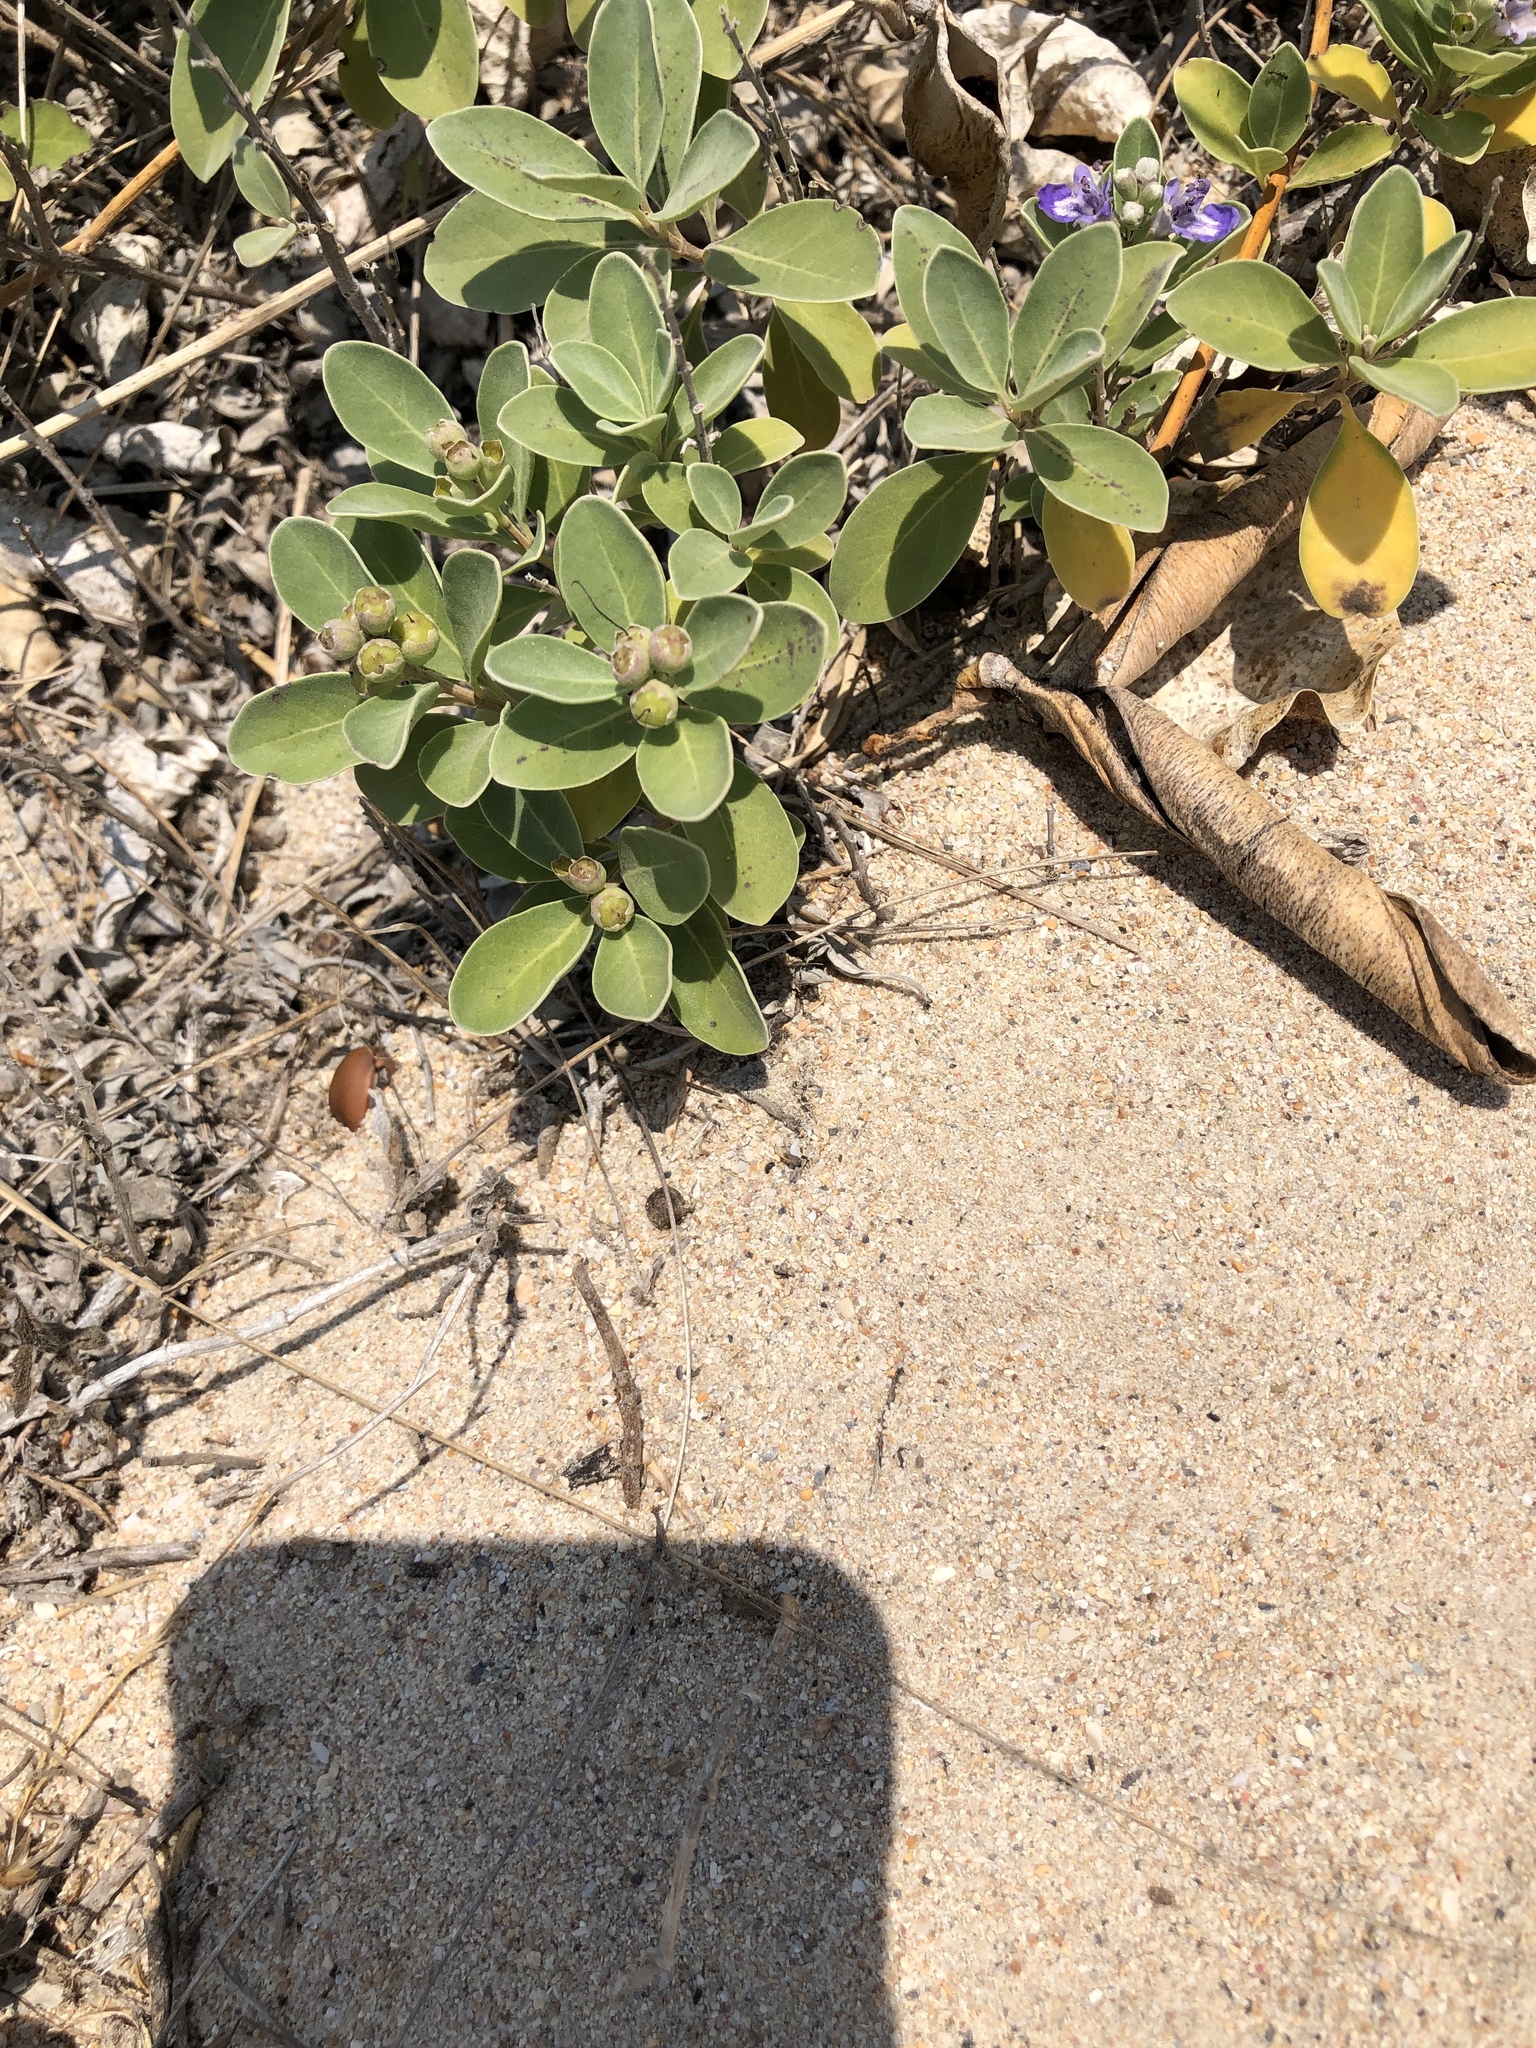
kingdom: Plantae
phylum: Tracheophyta
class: Magnoliopsida
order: Lamiales
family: Lamiaceae
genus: Vitex
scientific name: Vitex rotundifolia
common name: Beach vitex
